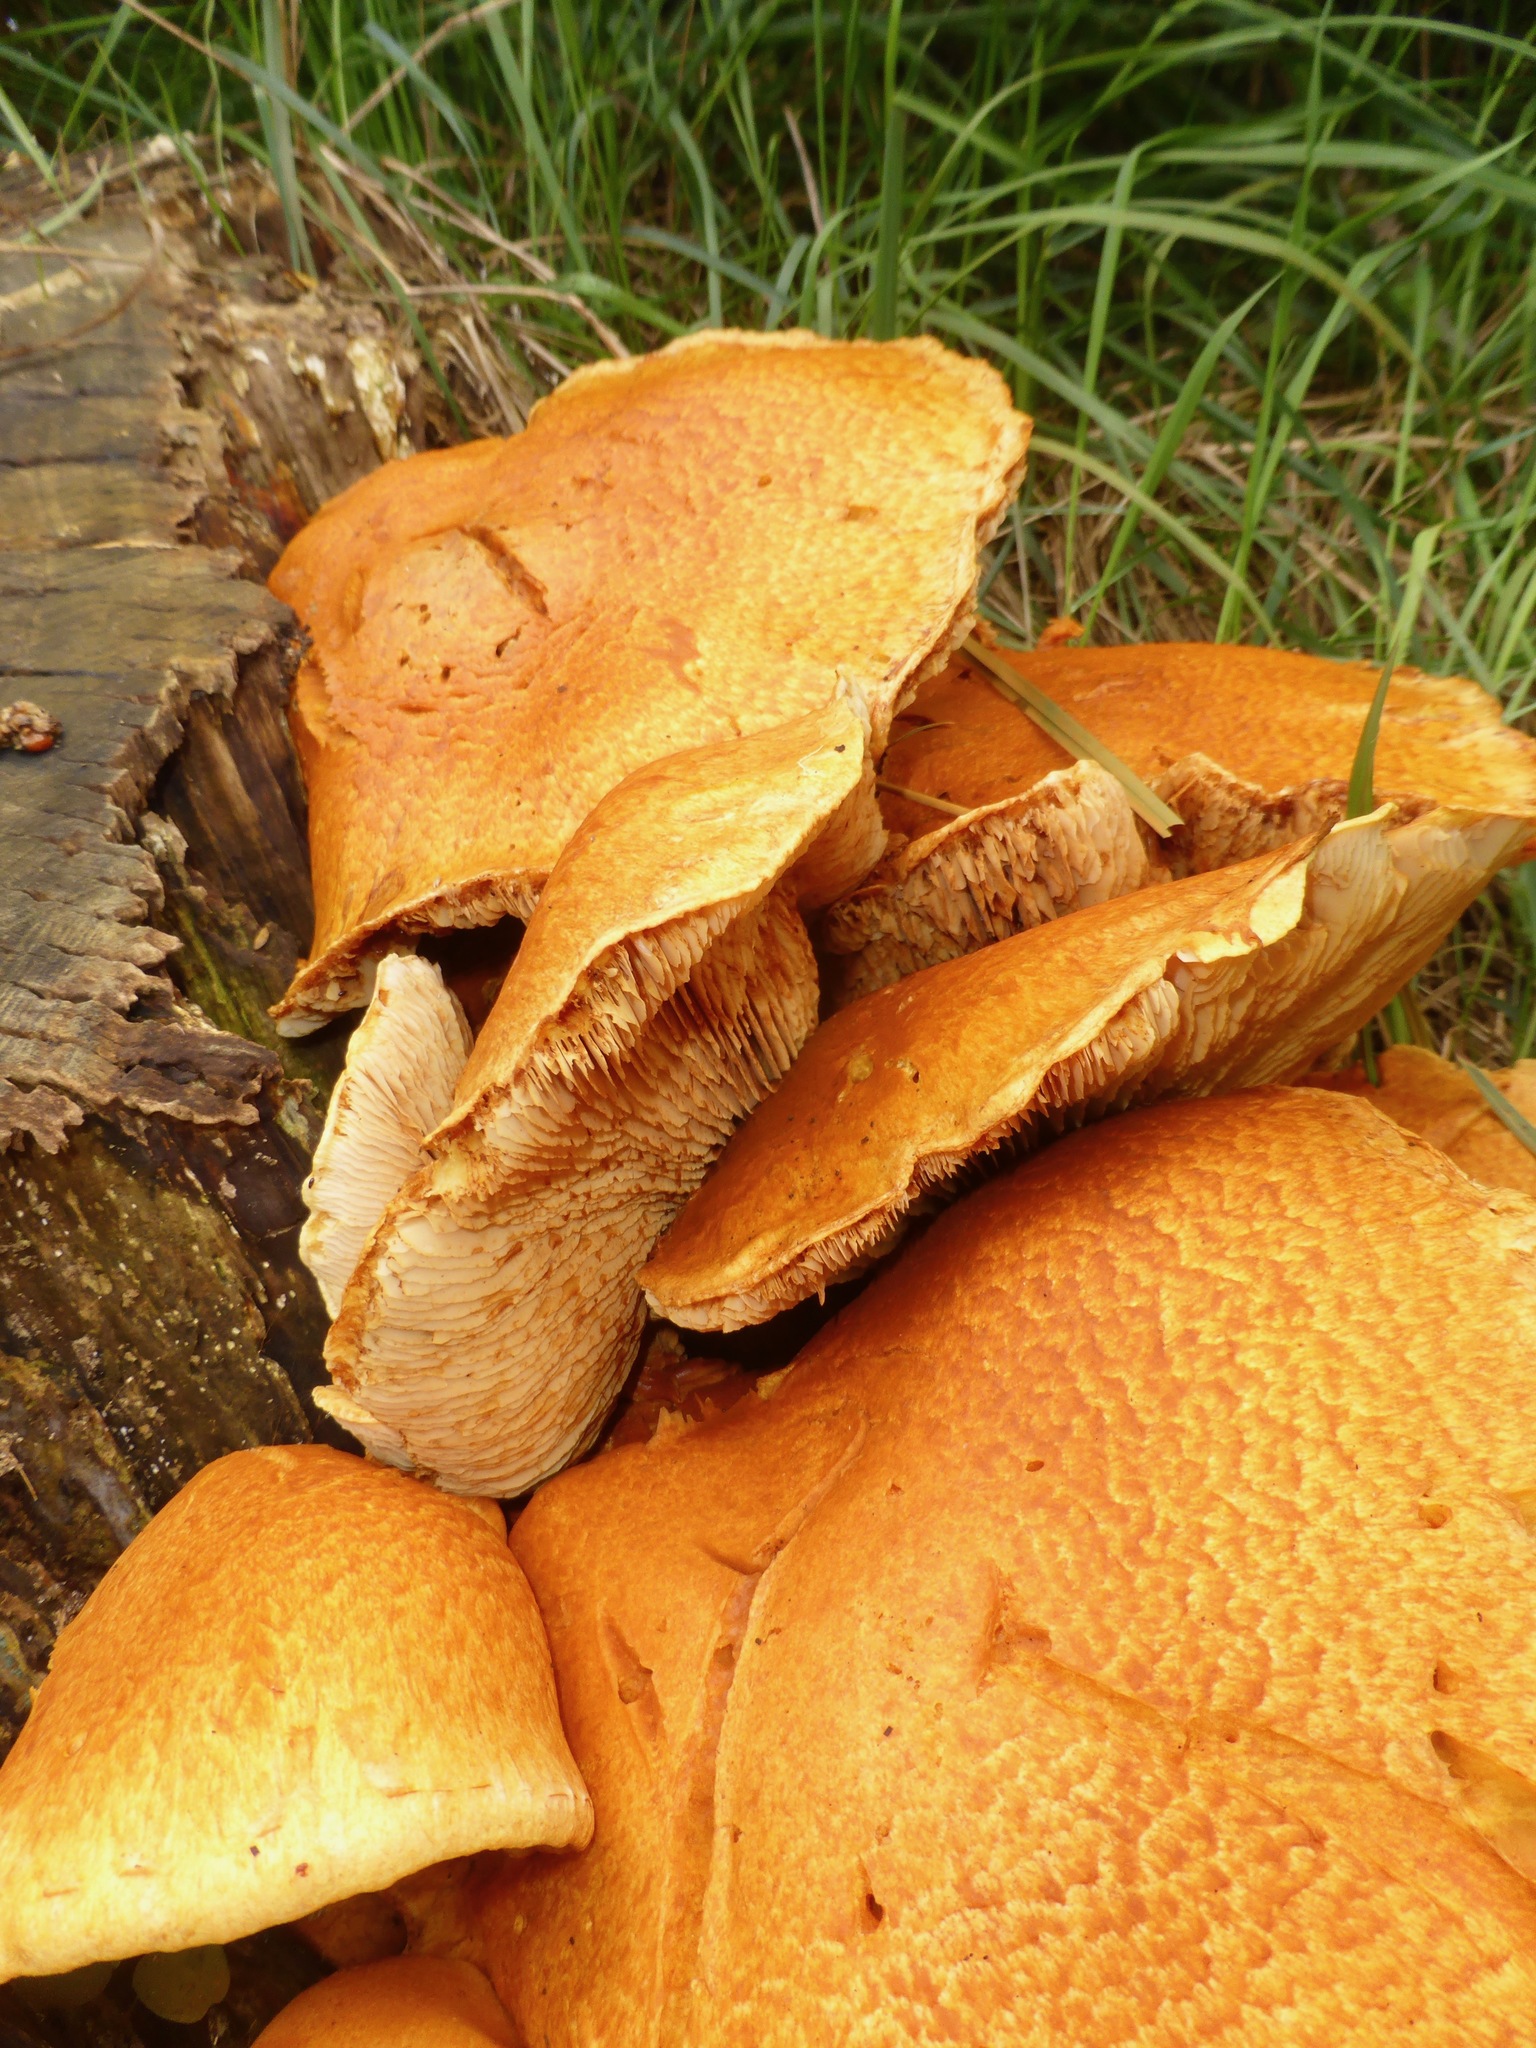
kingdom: Fungi
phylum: Basidiomycota
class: Agaricomycetes
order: Agaricales
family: Hymenogastraceae
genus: Gymnopilus
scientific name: Gymnopilus junonius
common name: Spectacular rustgill
